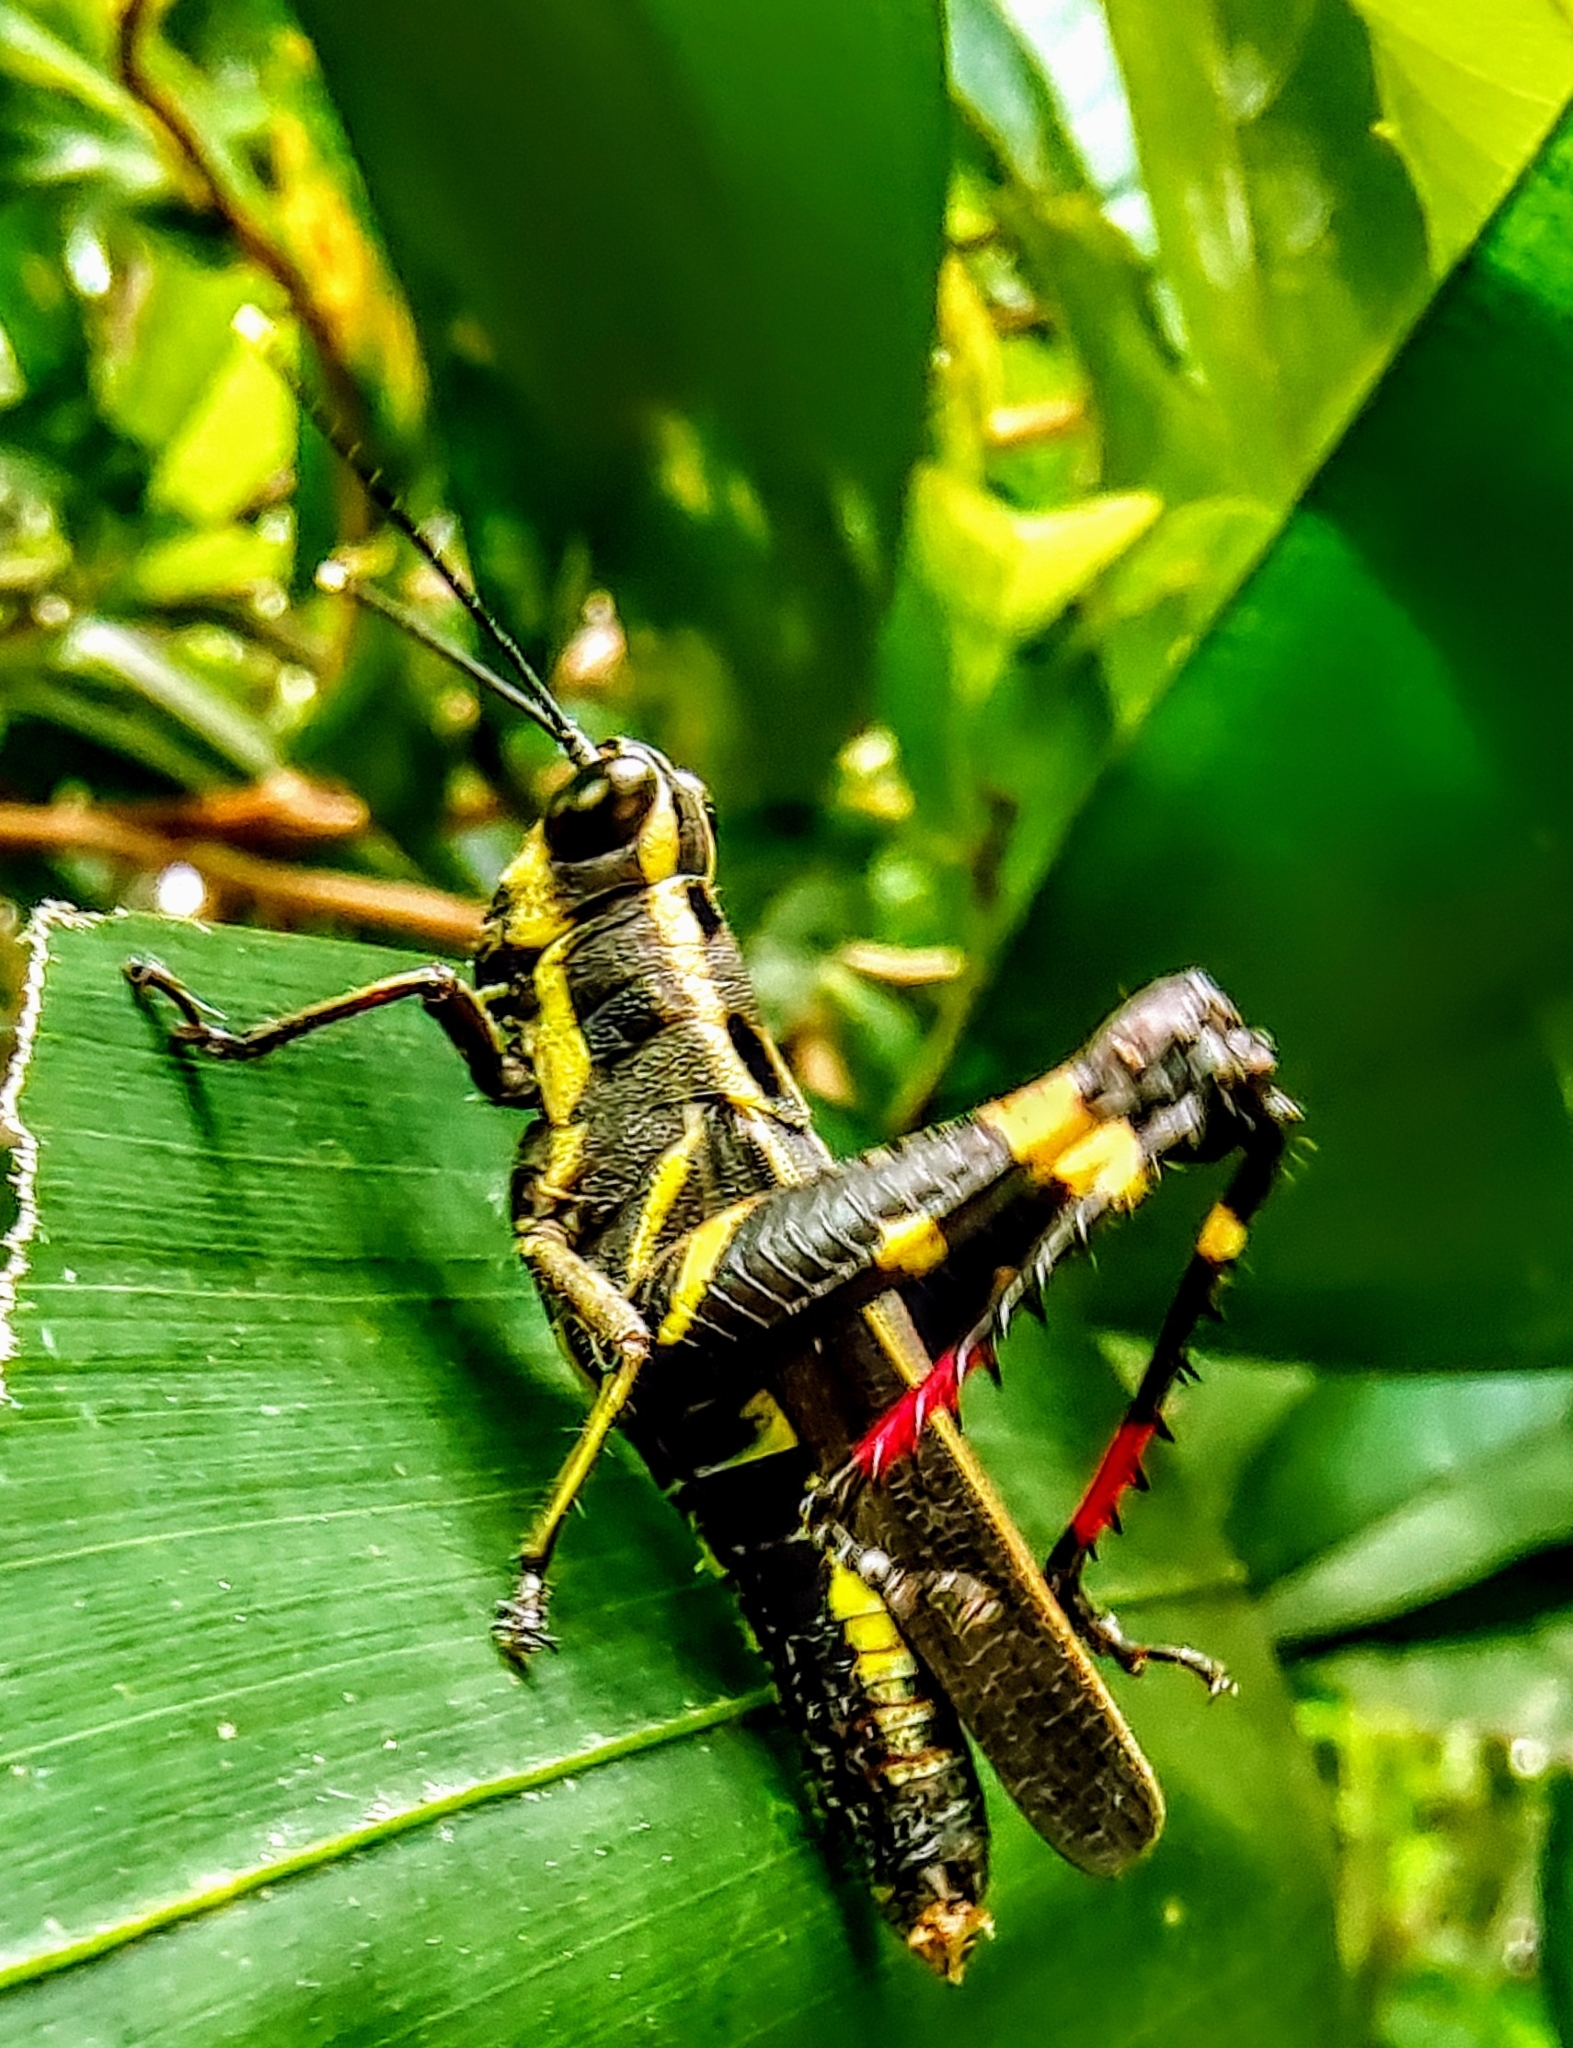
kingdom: Animalia
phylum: Arthropoda
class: Insecta
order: Orthoptera
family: Acrididae
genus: Traulia
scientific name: Traulia azureipennis
